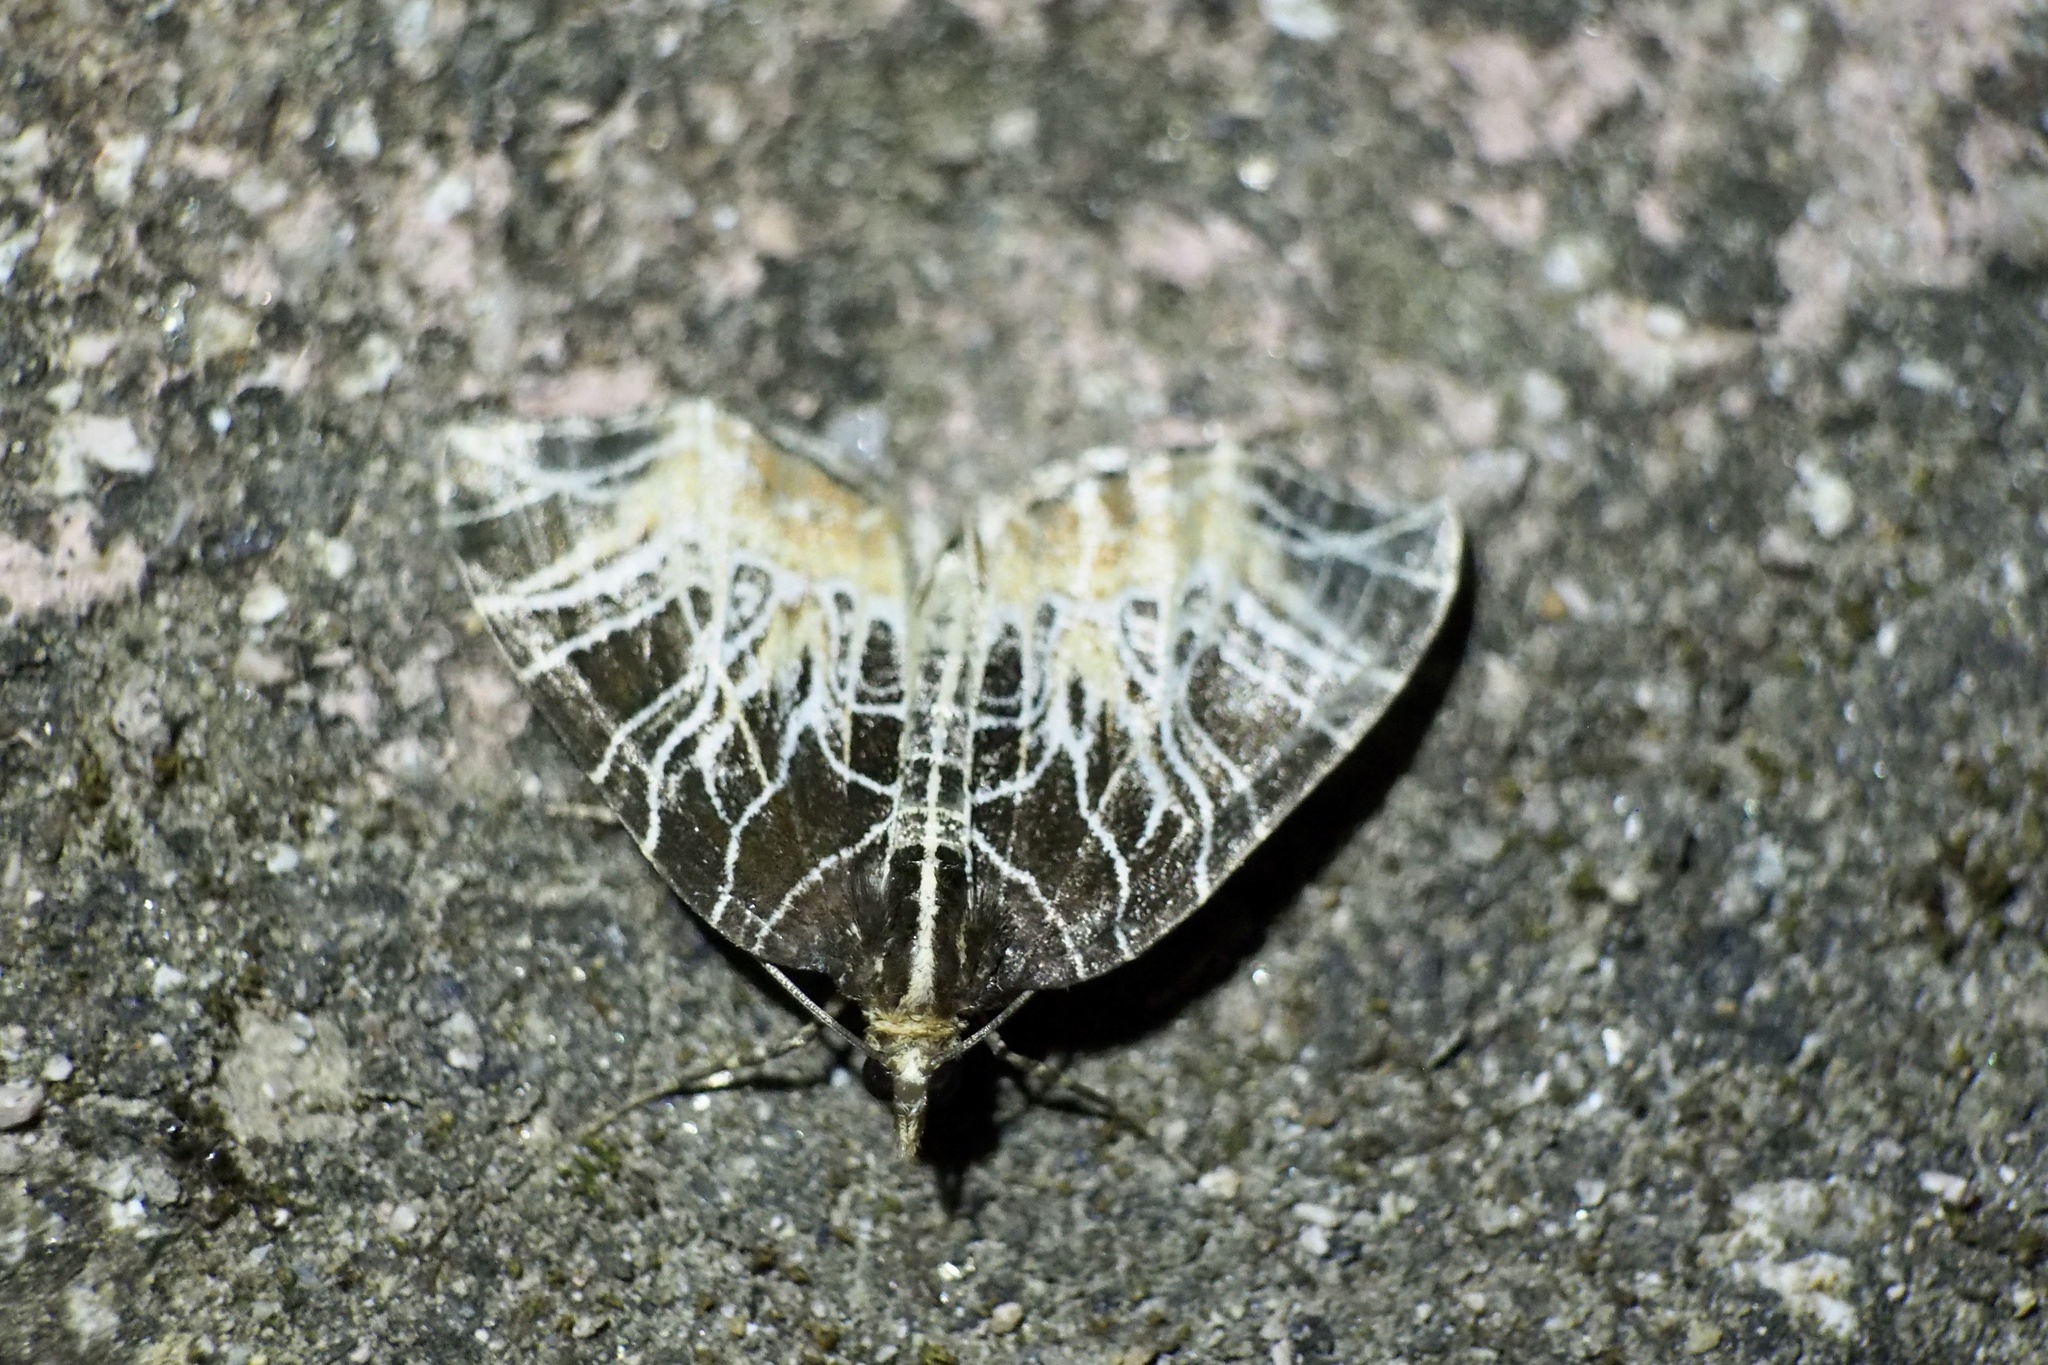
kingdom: Animalia
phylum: Arthropoda
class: Insecta
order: Lepidoptera
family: Geometridae
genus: Evecliptopera
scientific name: Evecliptopera illitata
